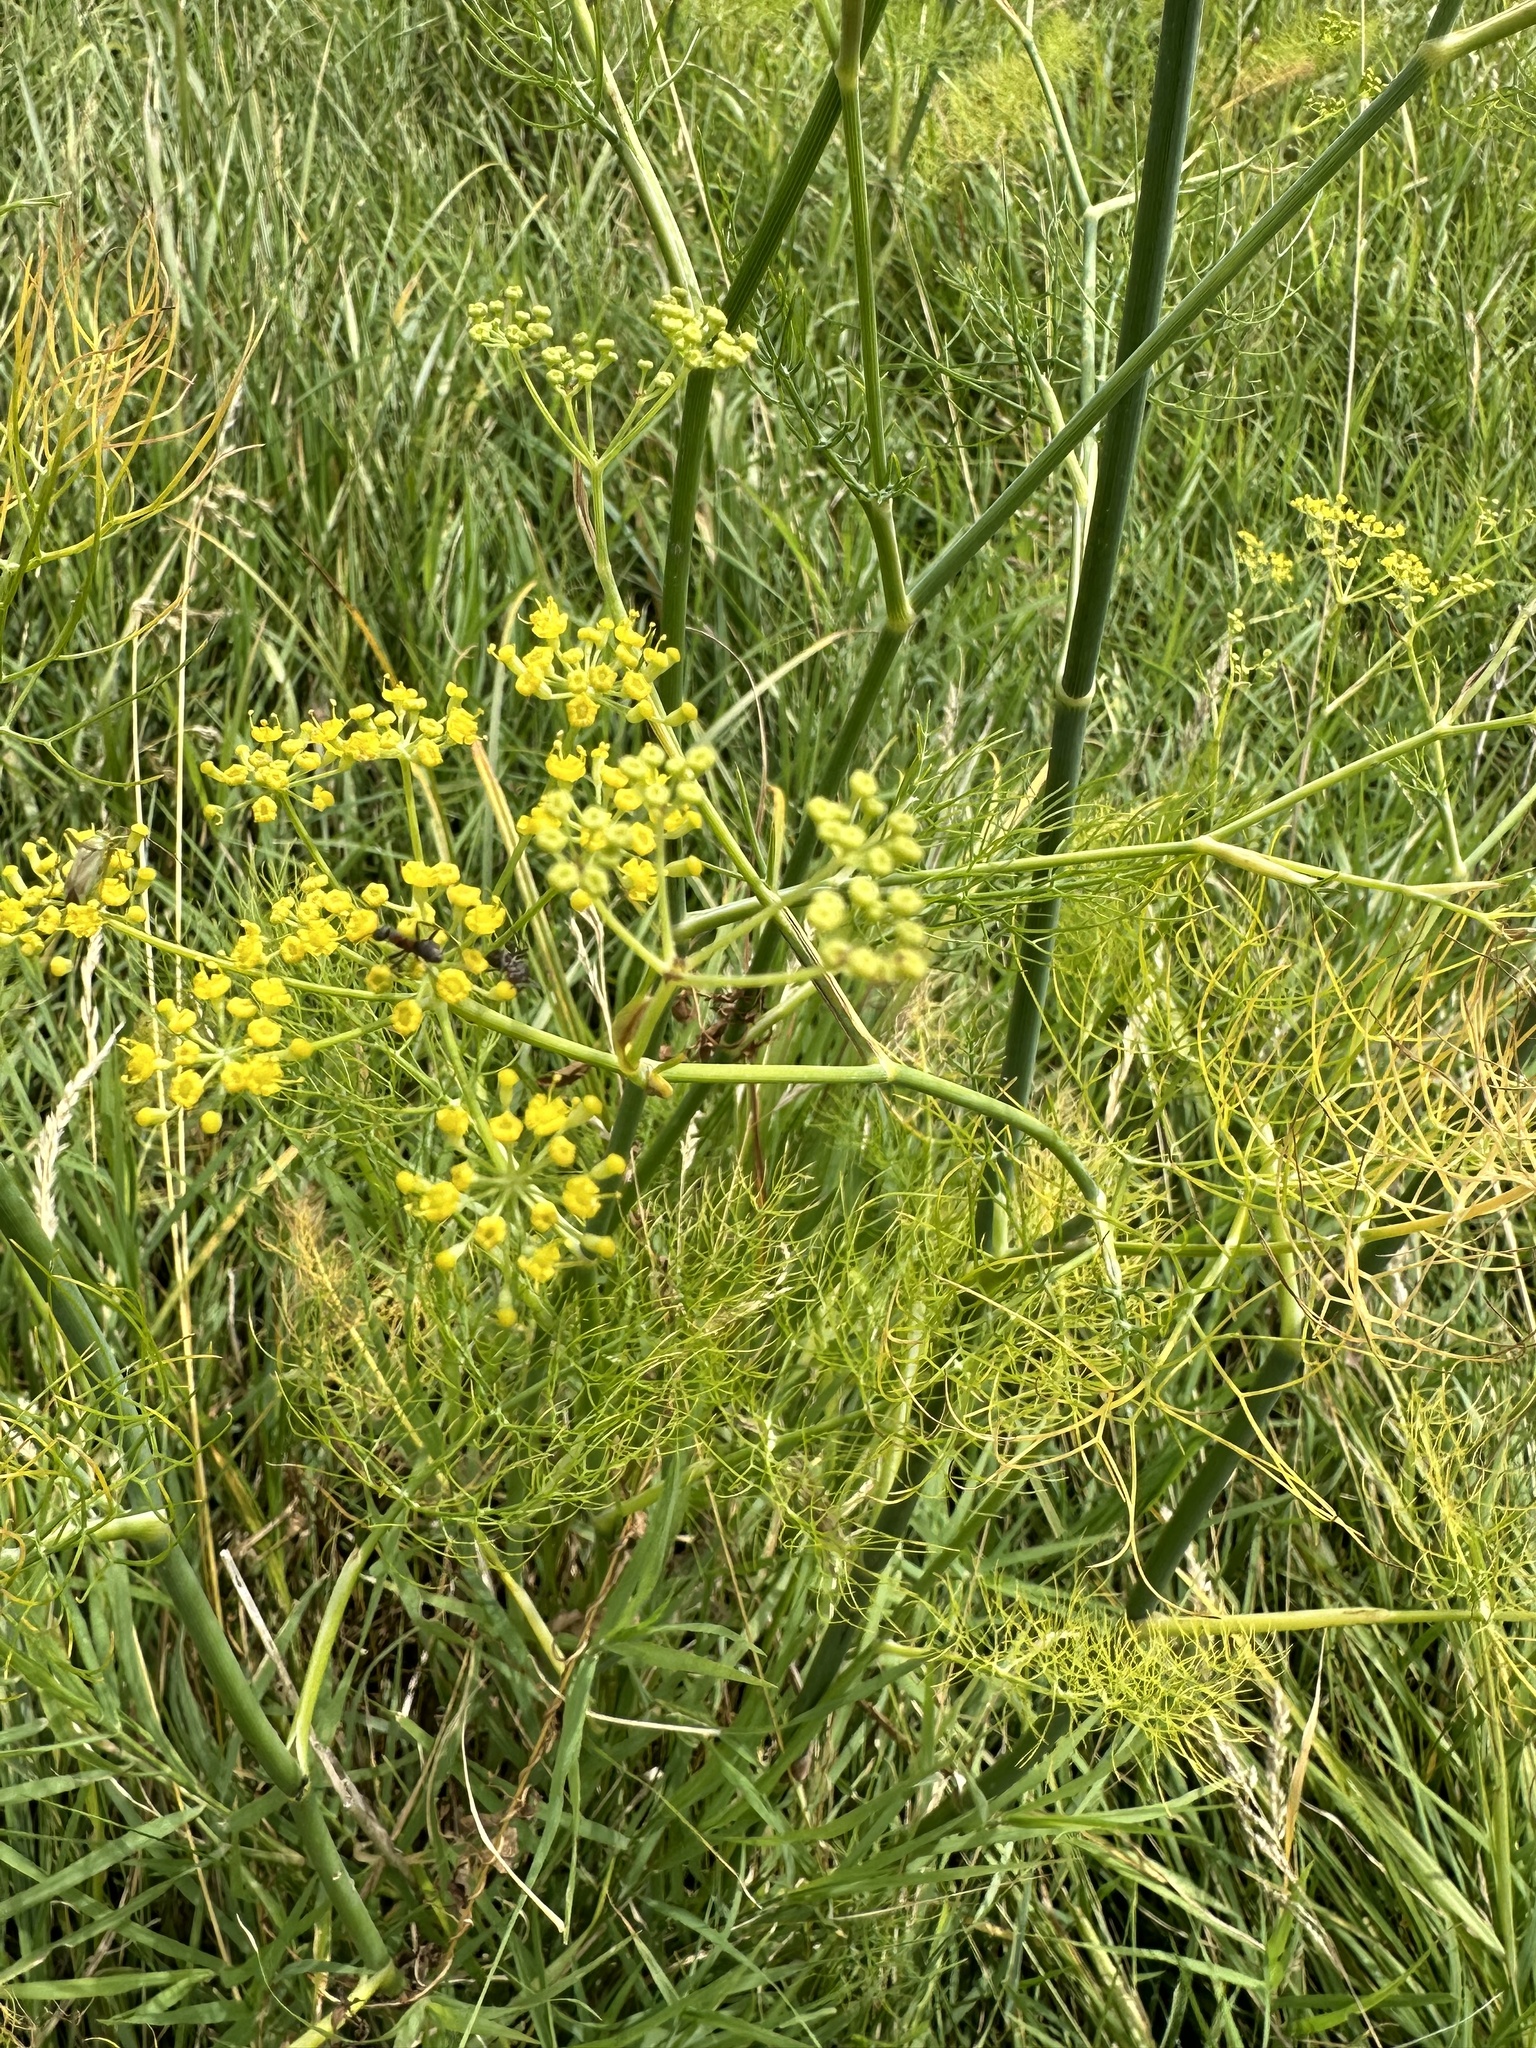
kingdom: Plantae
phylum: Tracheophyta
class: Magnoliopsida
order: Apiales
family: Apiaceae
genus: Foeniculum
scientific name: Foeniculum vulgare
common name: Fennel
